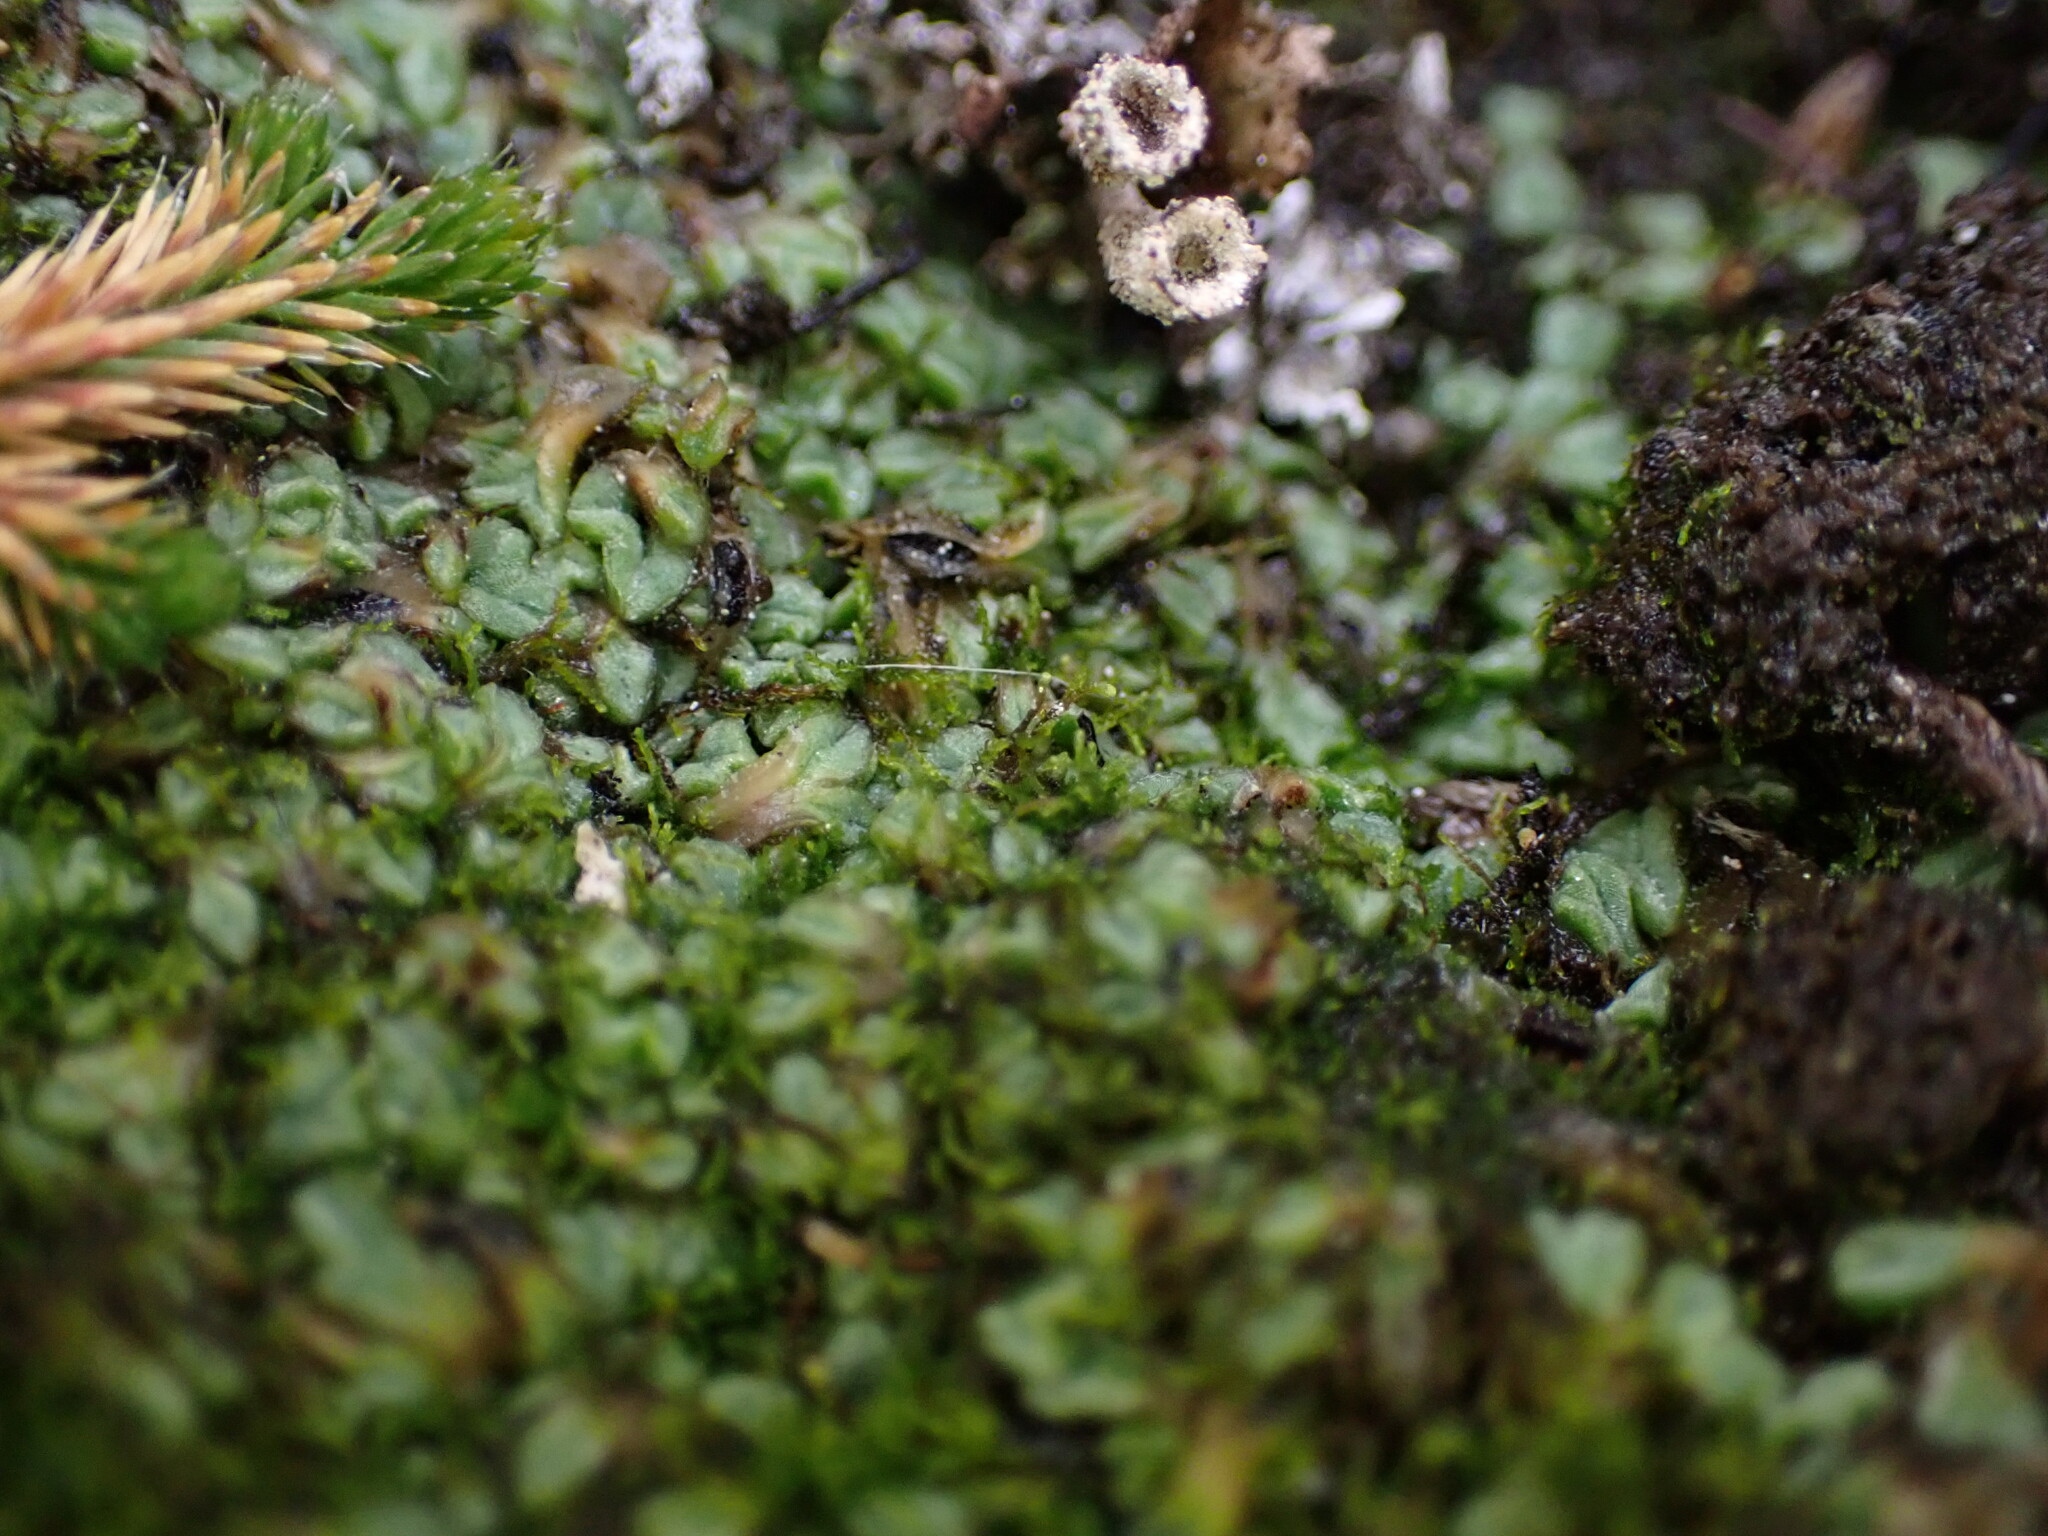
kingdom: Plantae
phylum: Marchantiophyta
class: Marchantiopsida
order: Marchantiales
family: Ricciaceae
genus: Riccia
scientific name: Riccia sorocarpa
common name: Common crystalwort
